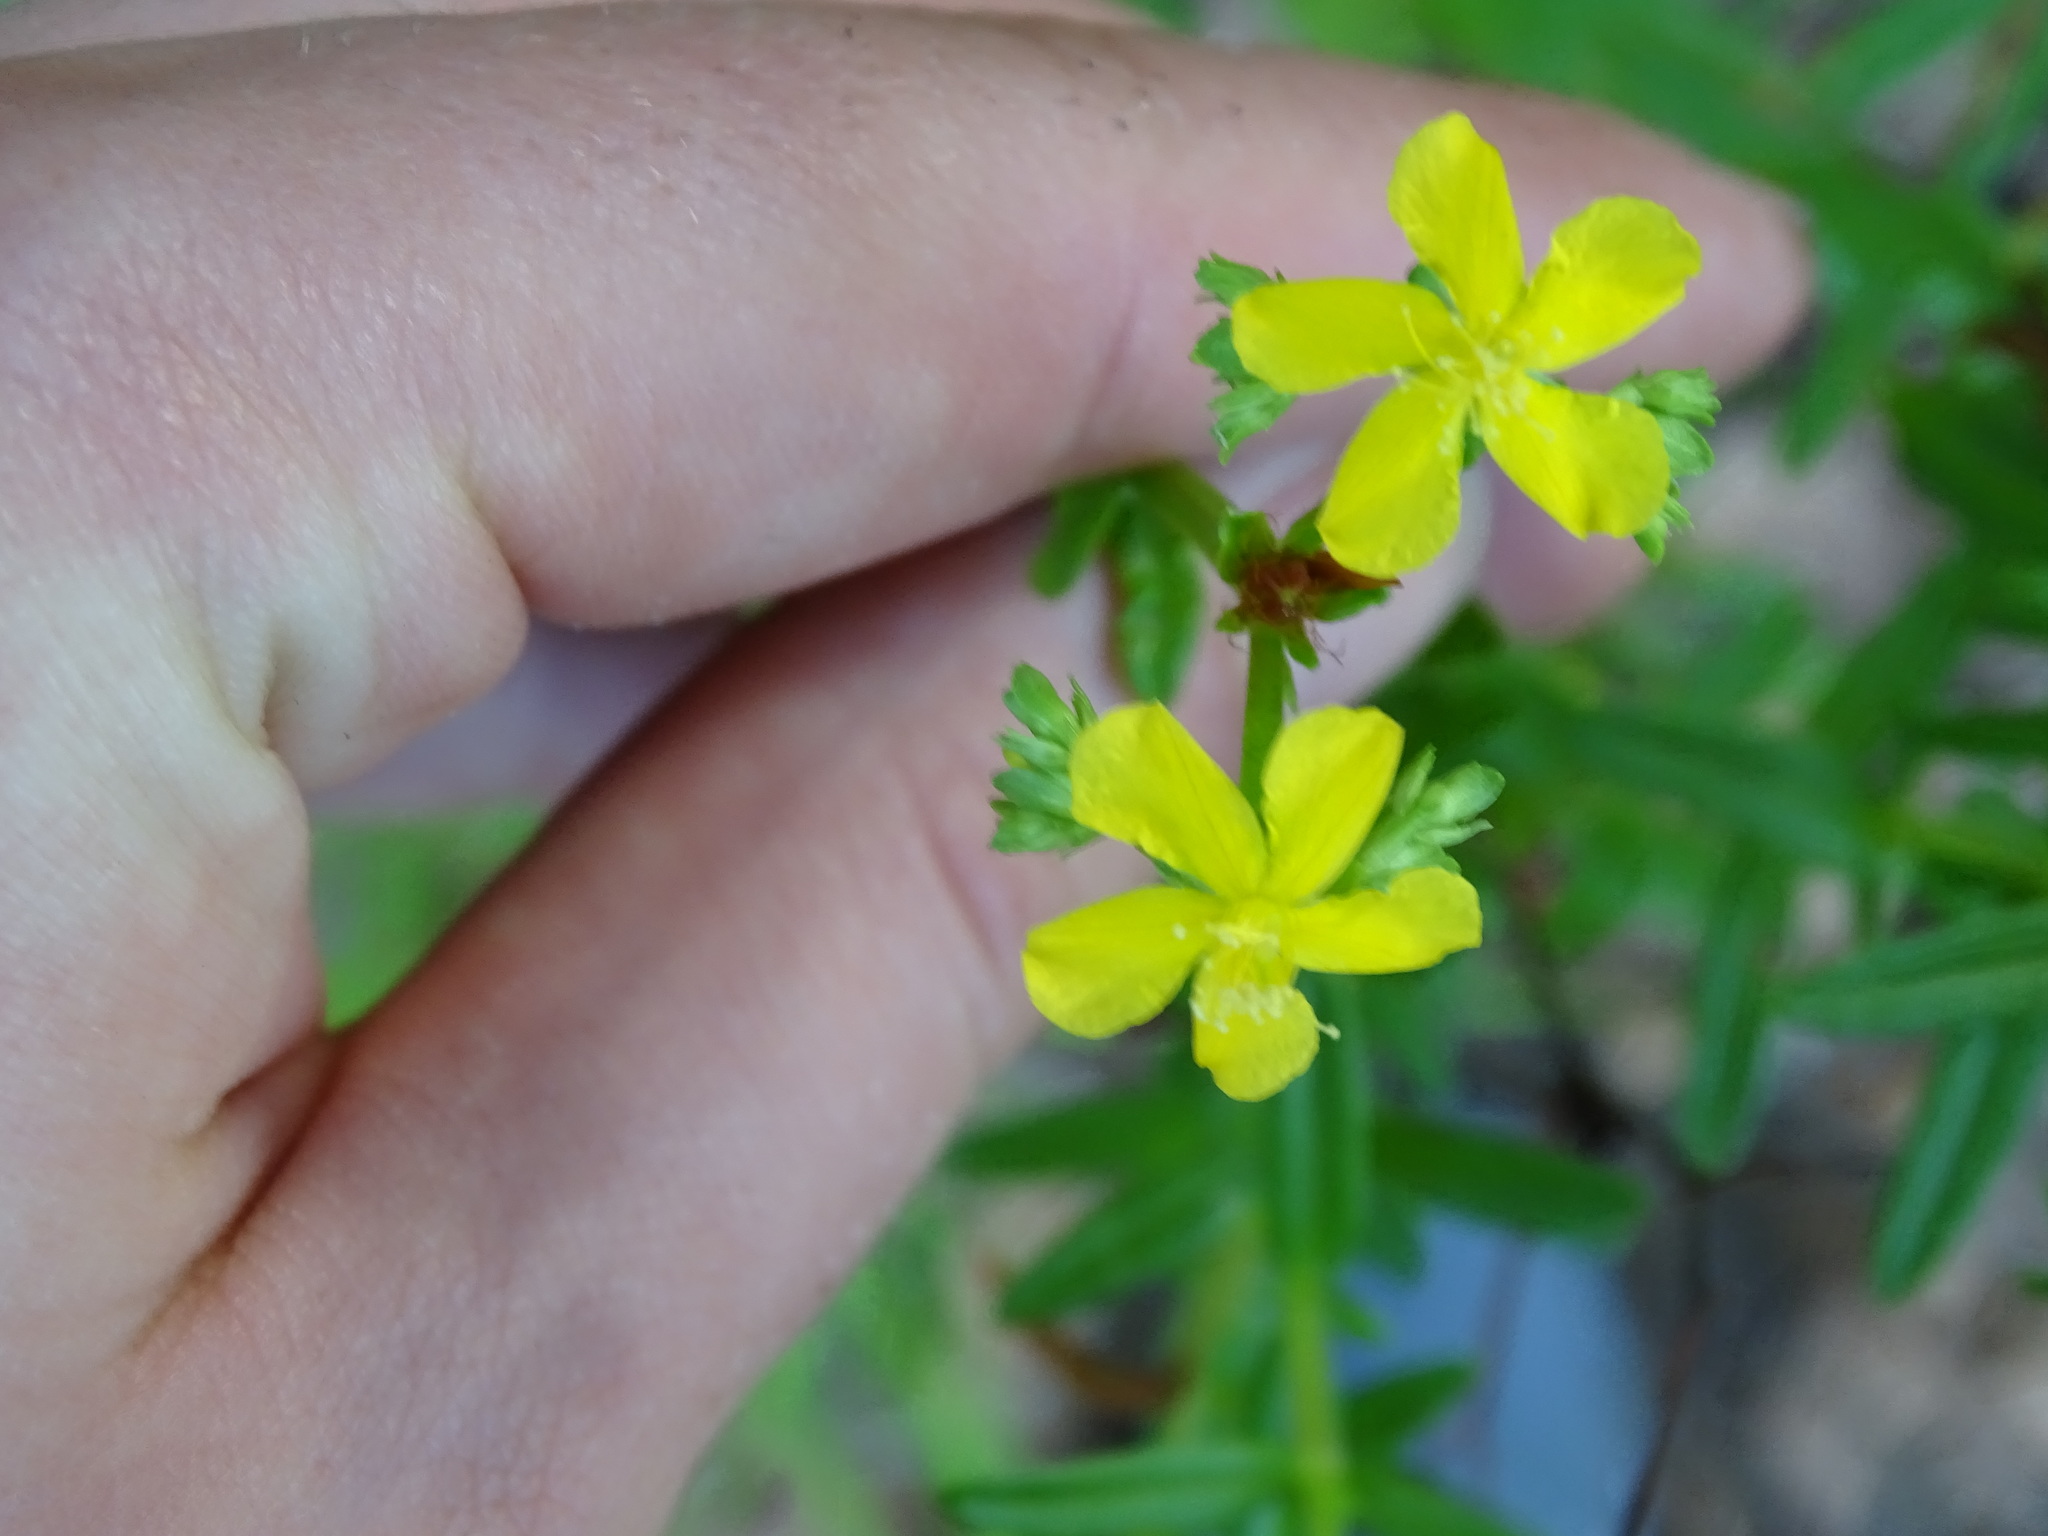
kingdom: Plantae
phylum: Tracheophyta
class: Magnoliopsida
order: Malpighiales
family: Hypericaceae
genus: Hypericum
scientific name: Hypericum cistifolium
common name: Round-pod st. john's-wort
